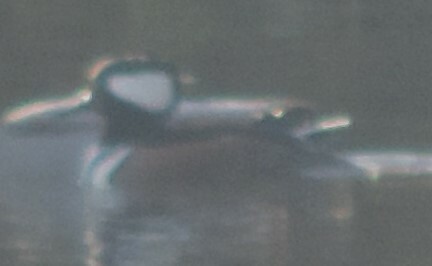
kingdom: Animalia
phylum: Chordata
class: Aves
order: Anseriformes
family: Anatidae
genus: Lophodytes
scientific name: Lophodytes cucullatus
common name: Hooded merganser
